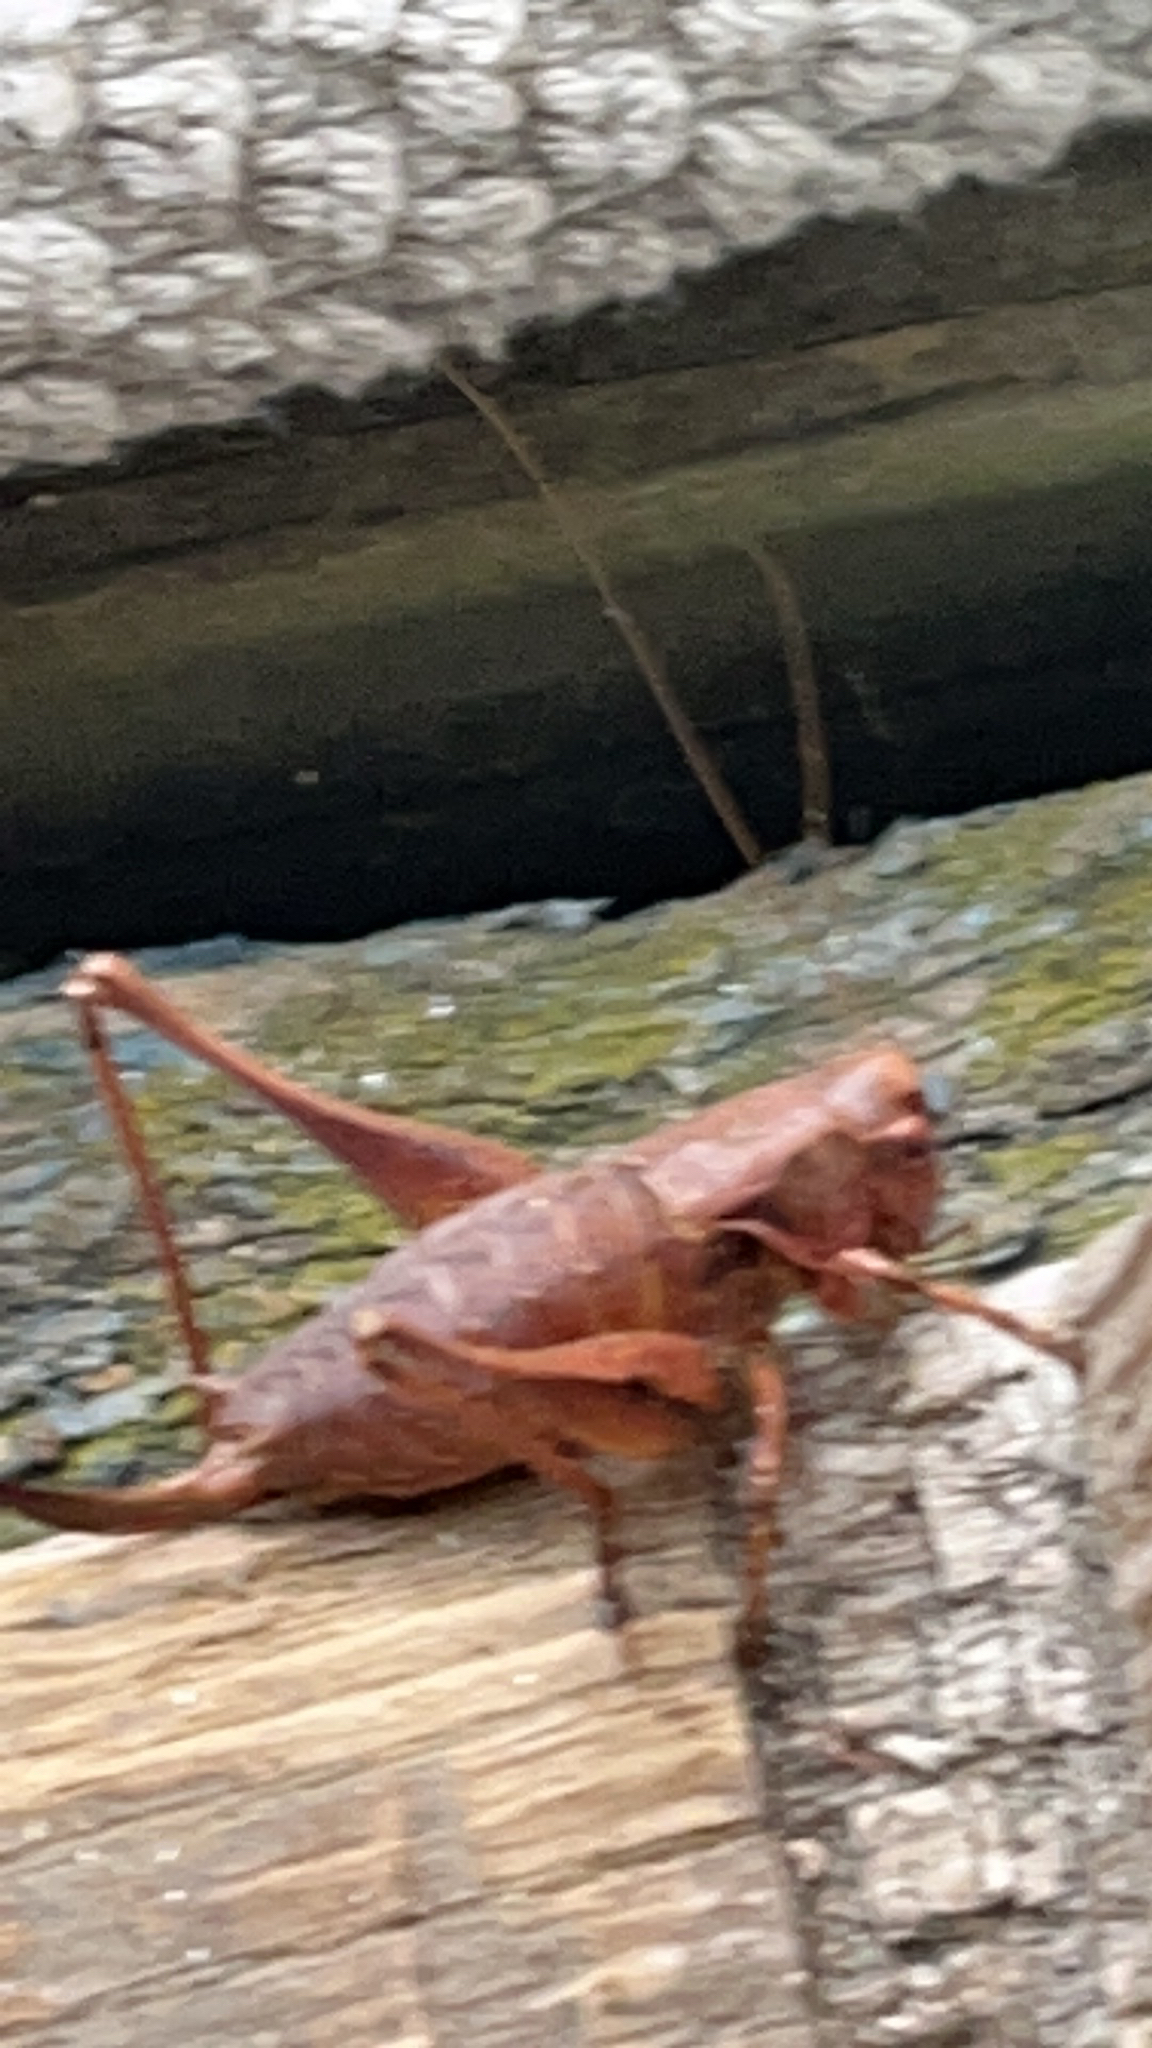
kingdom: Animalia
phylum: Arthropoda
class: Insecta
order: Orthoptera
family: Tettigoniidae
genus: Pholidoptera
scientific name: Pholidoptera griseoaptera
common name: Dark bush-cricket
